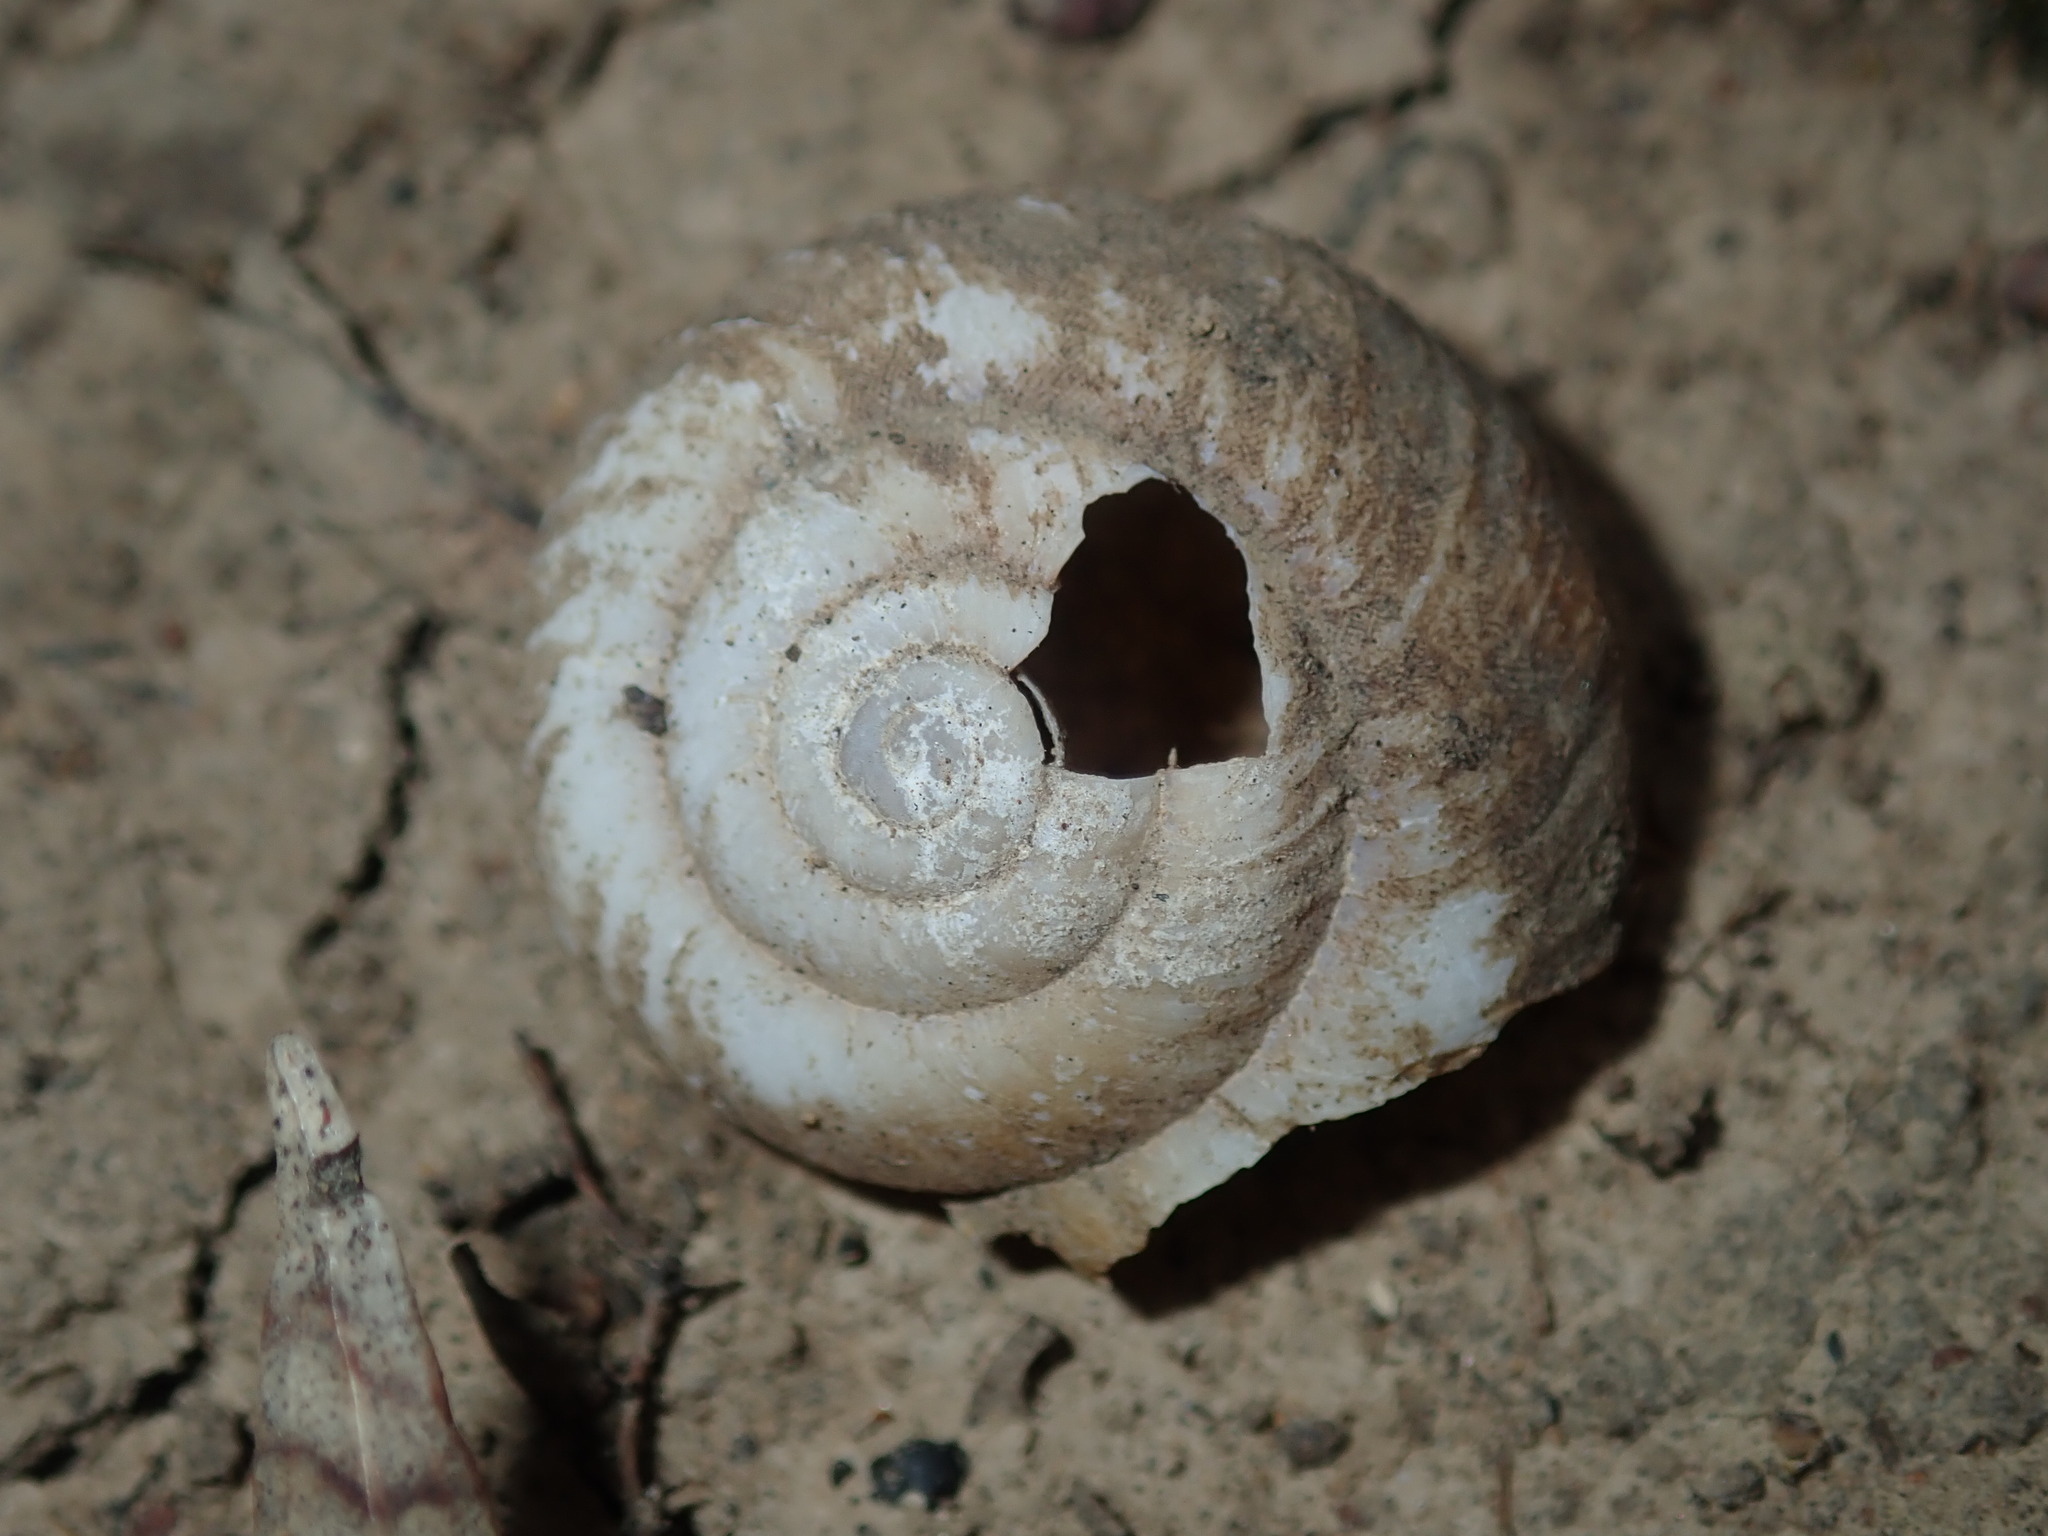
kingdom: Animalia
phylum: Mollusca
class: Gastropoda
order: Stylommatophora
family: Camaenidae
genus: Sauroconcha
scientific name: Sauroconcha sheai
